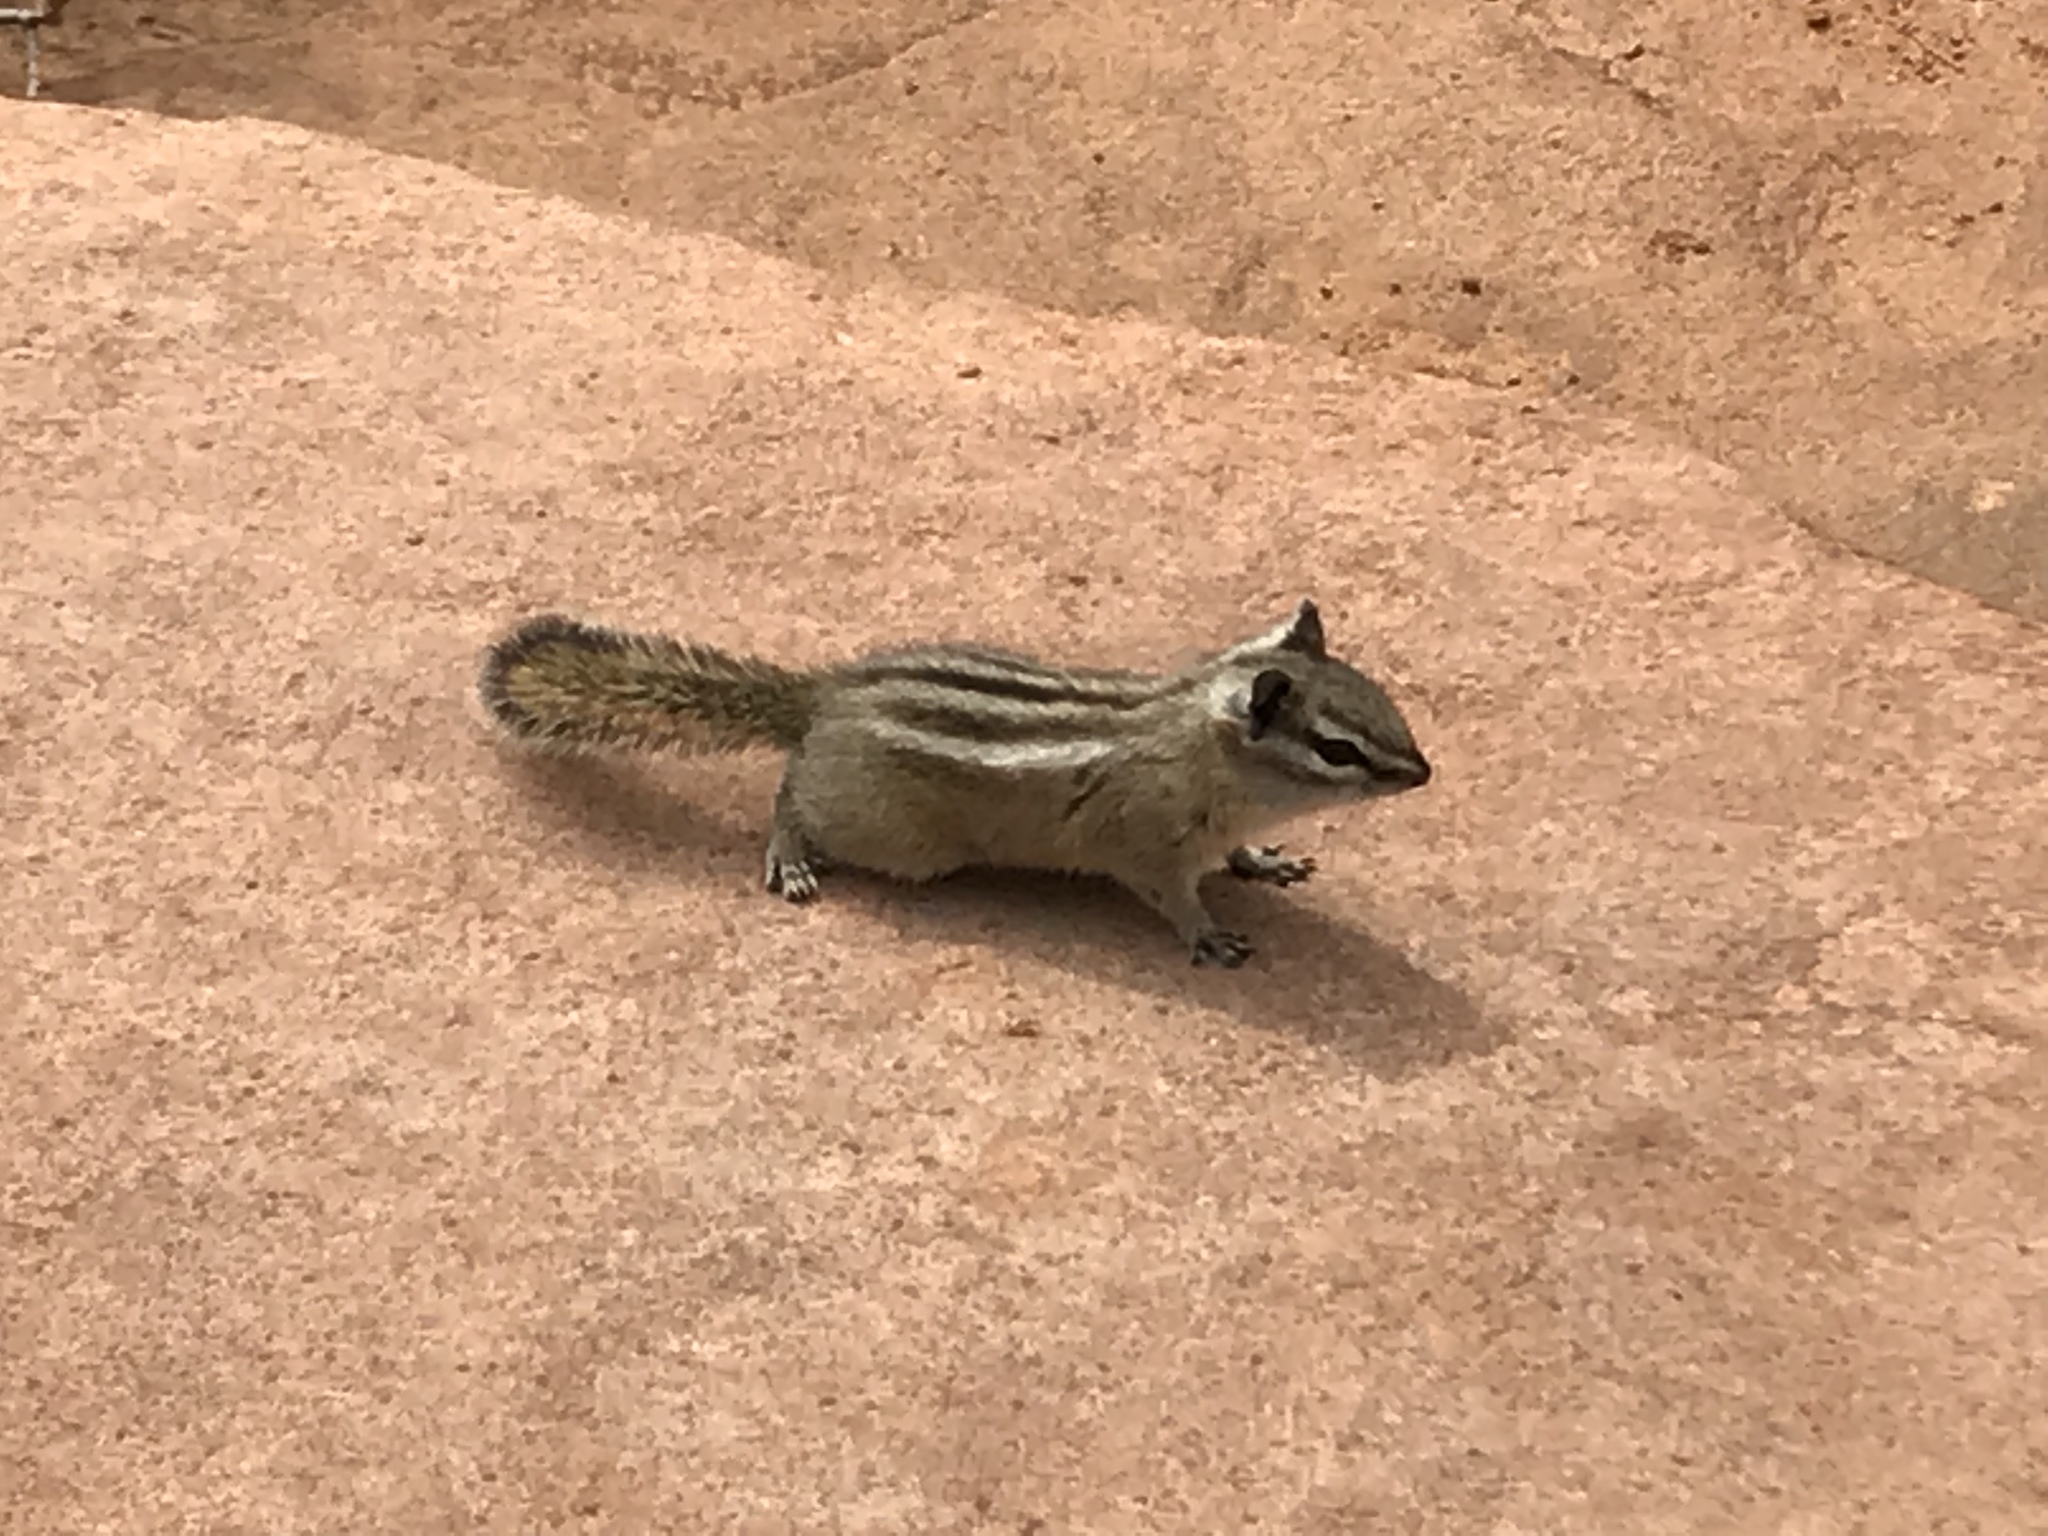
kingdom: Animalia
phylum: Chordata
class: Mammalia
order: Rodentia
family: Sciuridae
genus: Tamias
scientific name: Tamias umbrinus
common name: Uinta chipmunk
